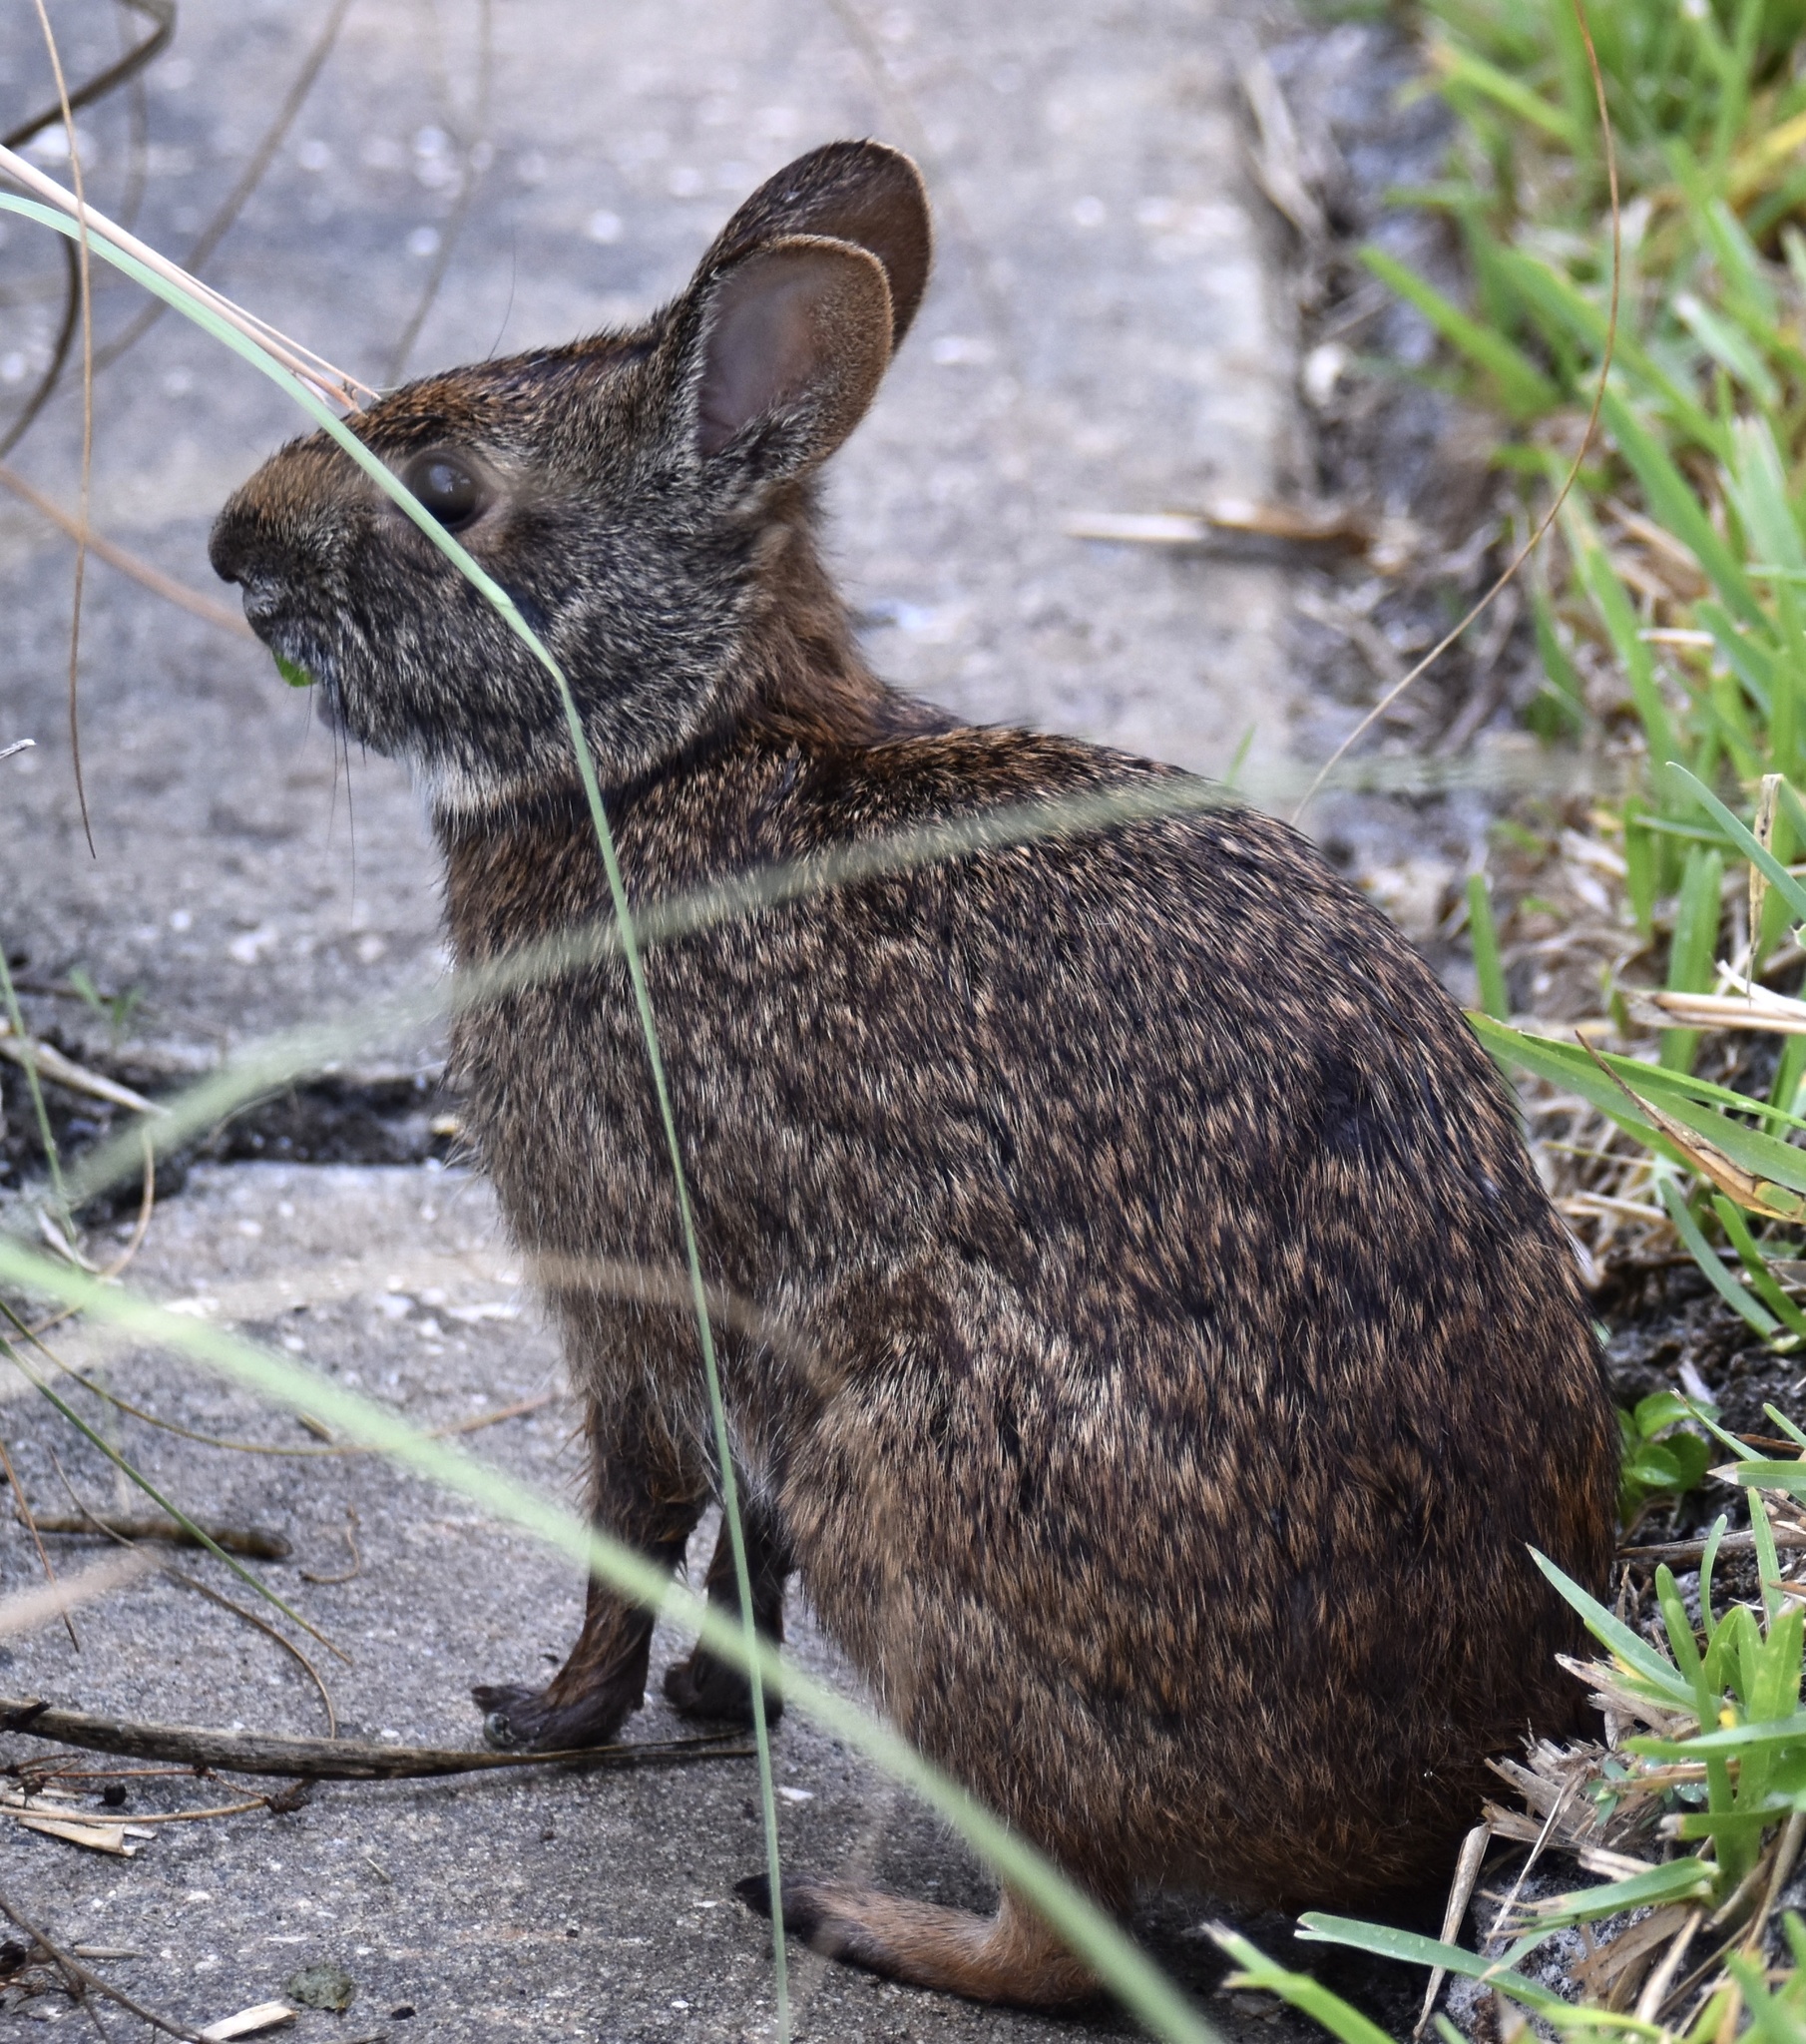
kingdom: Animalia
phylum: Chordata
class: Mammalia
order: Lagomorpha
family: Leporidae
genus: Sylvilagus
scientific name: Sylvilagus palustris
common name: Marsh rabbit
